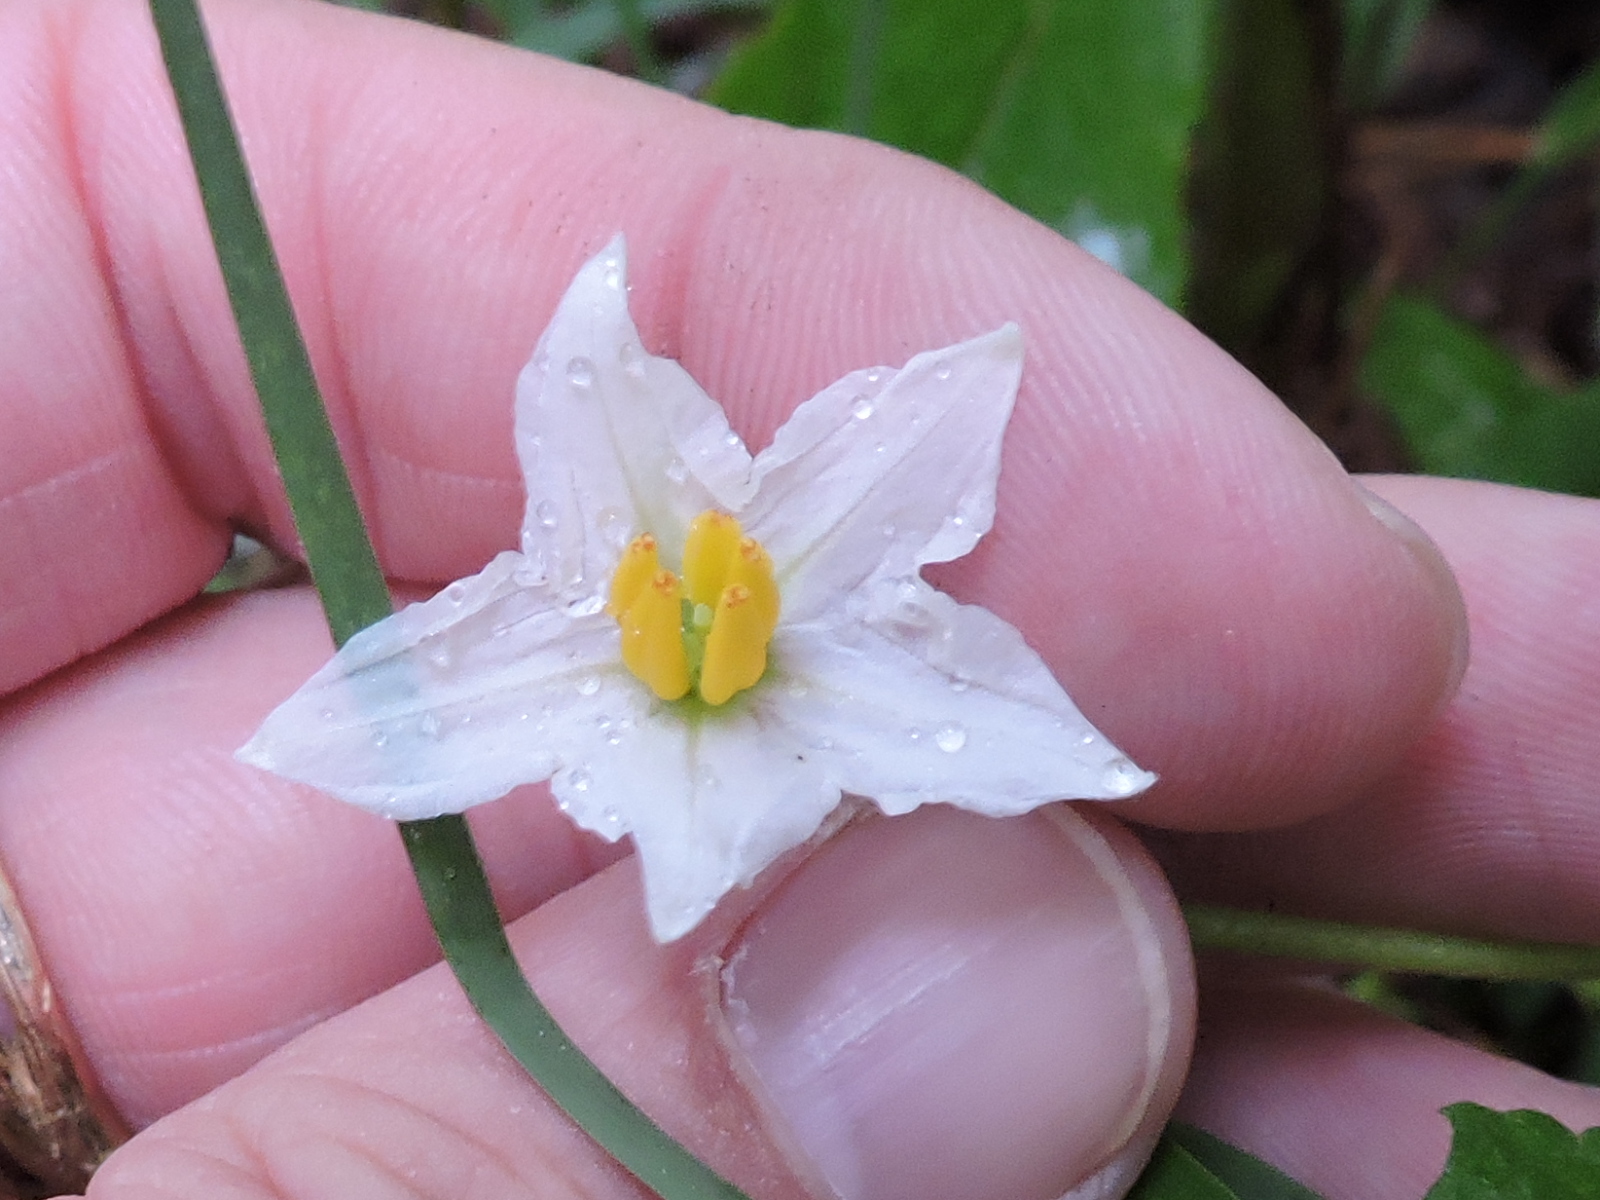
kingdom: Plantae
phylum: Tracheophyta
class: Magnoliopsida
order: Solanales
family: Solanaceae
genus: Solanum
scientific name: Solanum carolinense
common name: Horse-nettle
